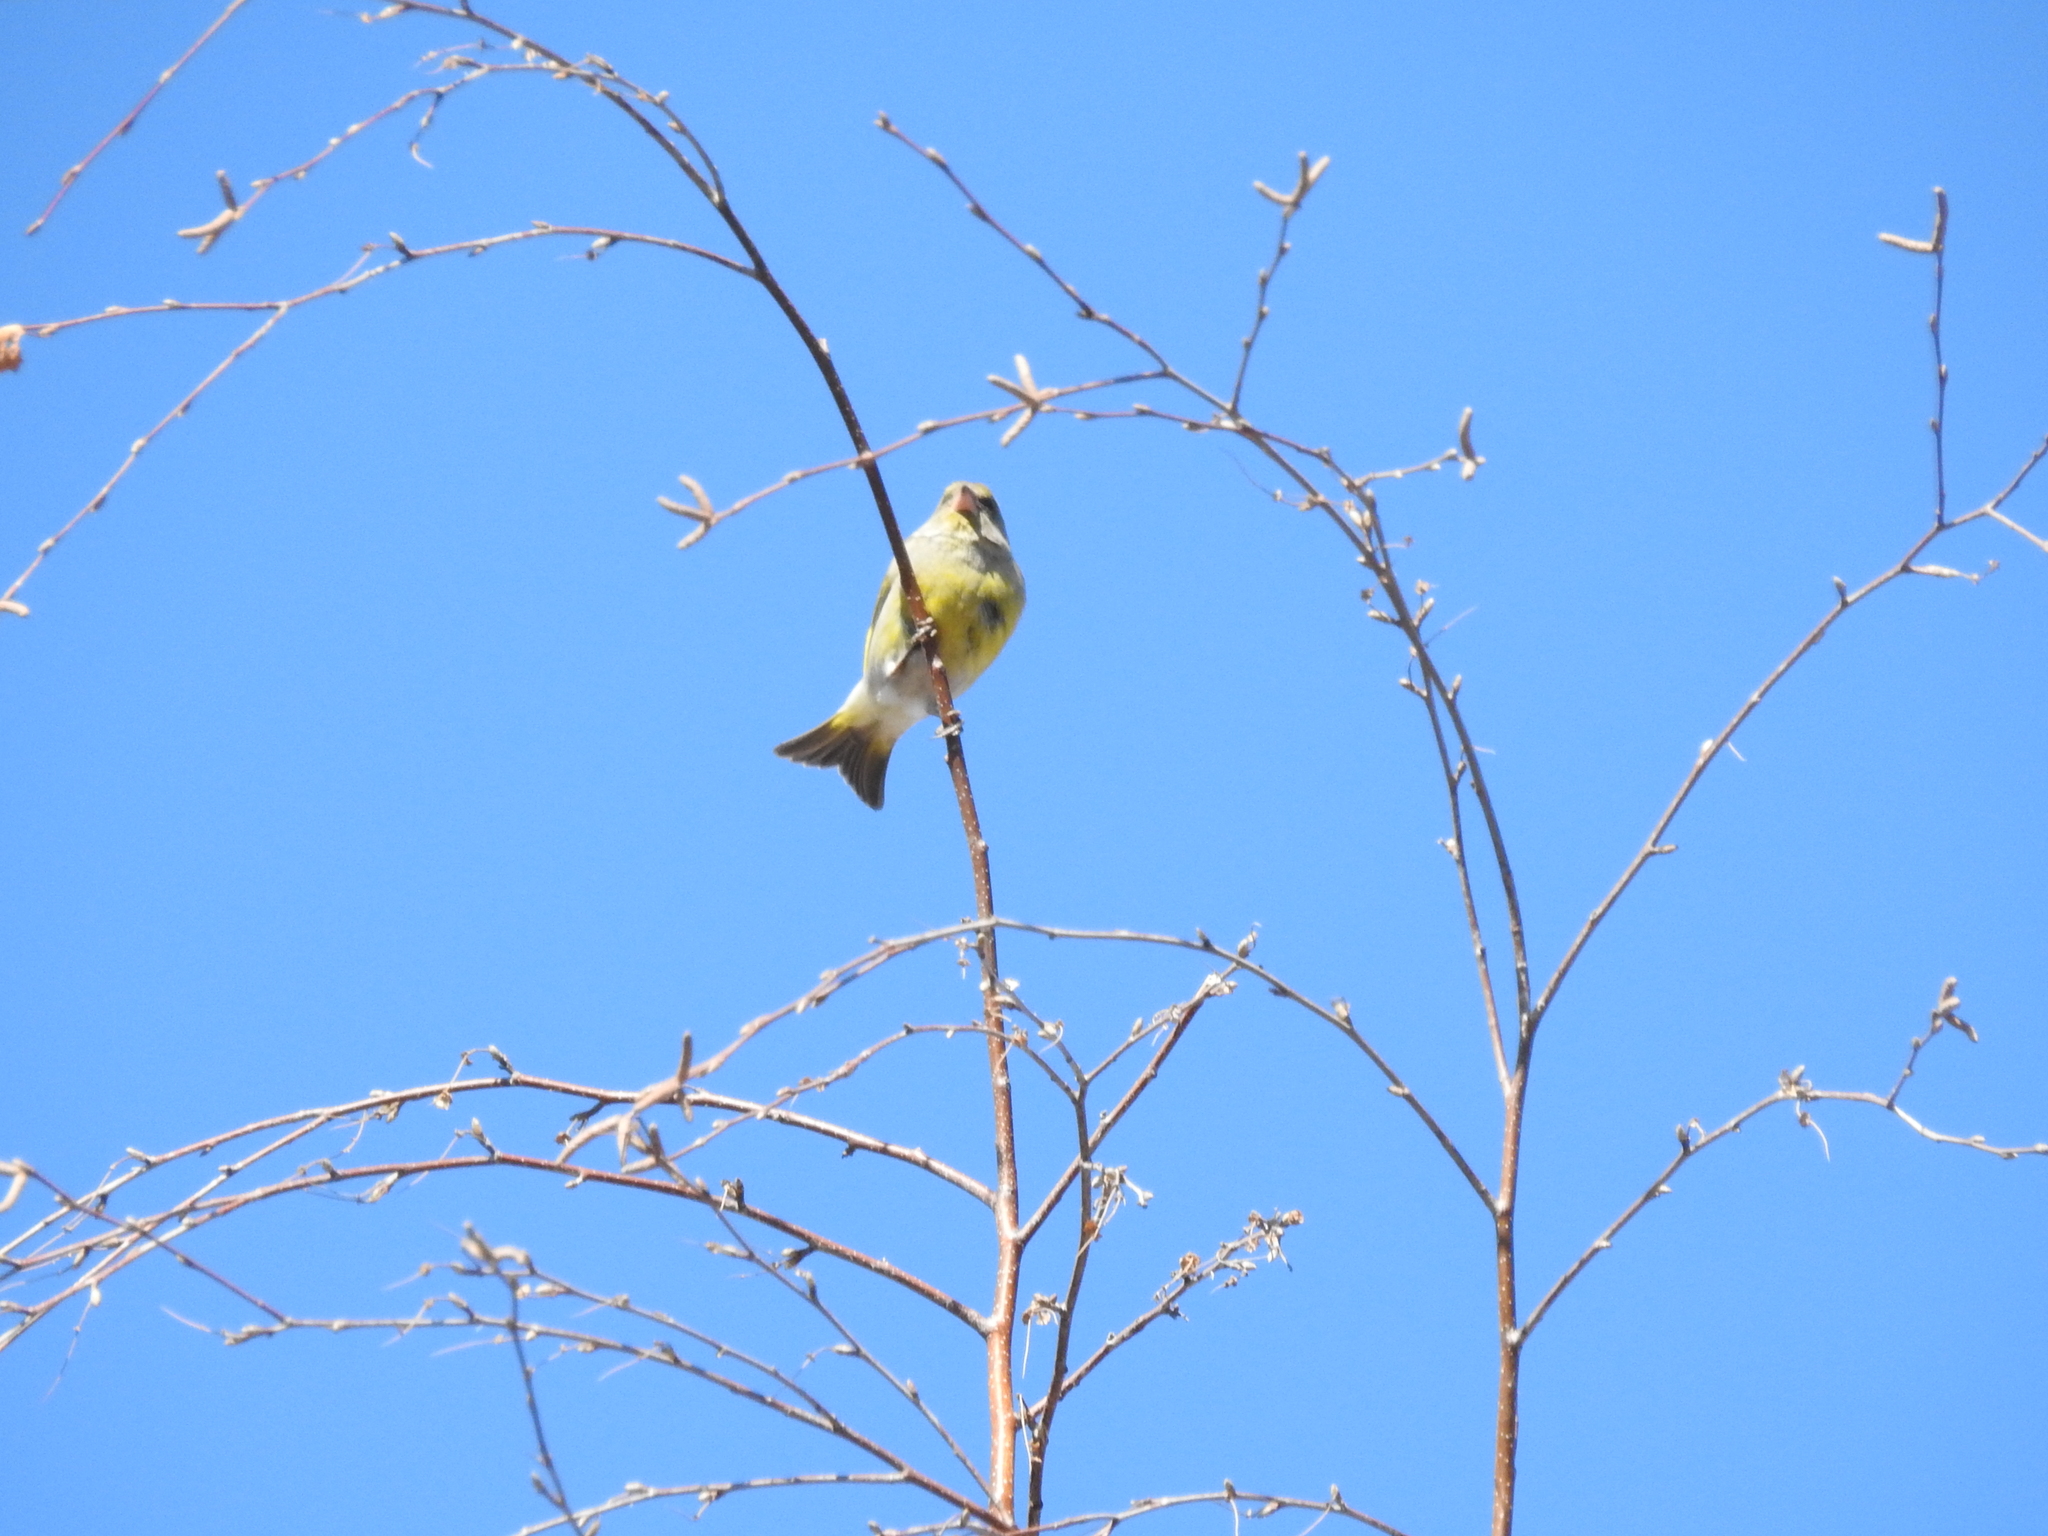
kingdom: Plantae
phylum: Tracheophyta
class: Liliopsida
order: Poales
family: Poaceae
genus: Chloris
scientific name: Chloris chloris
